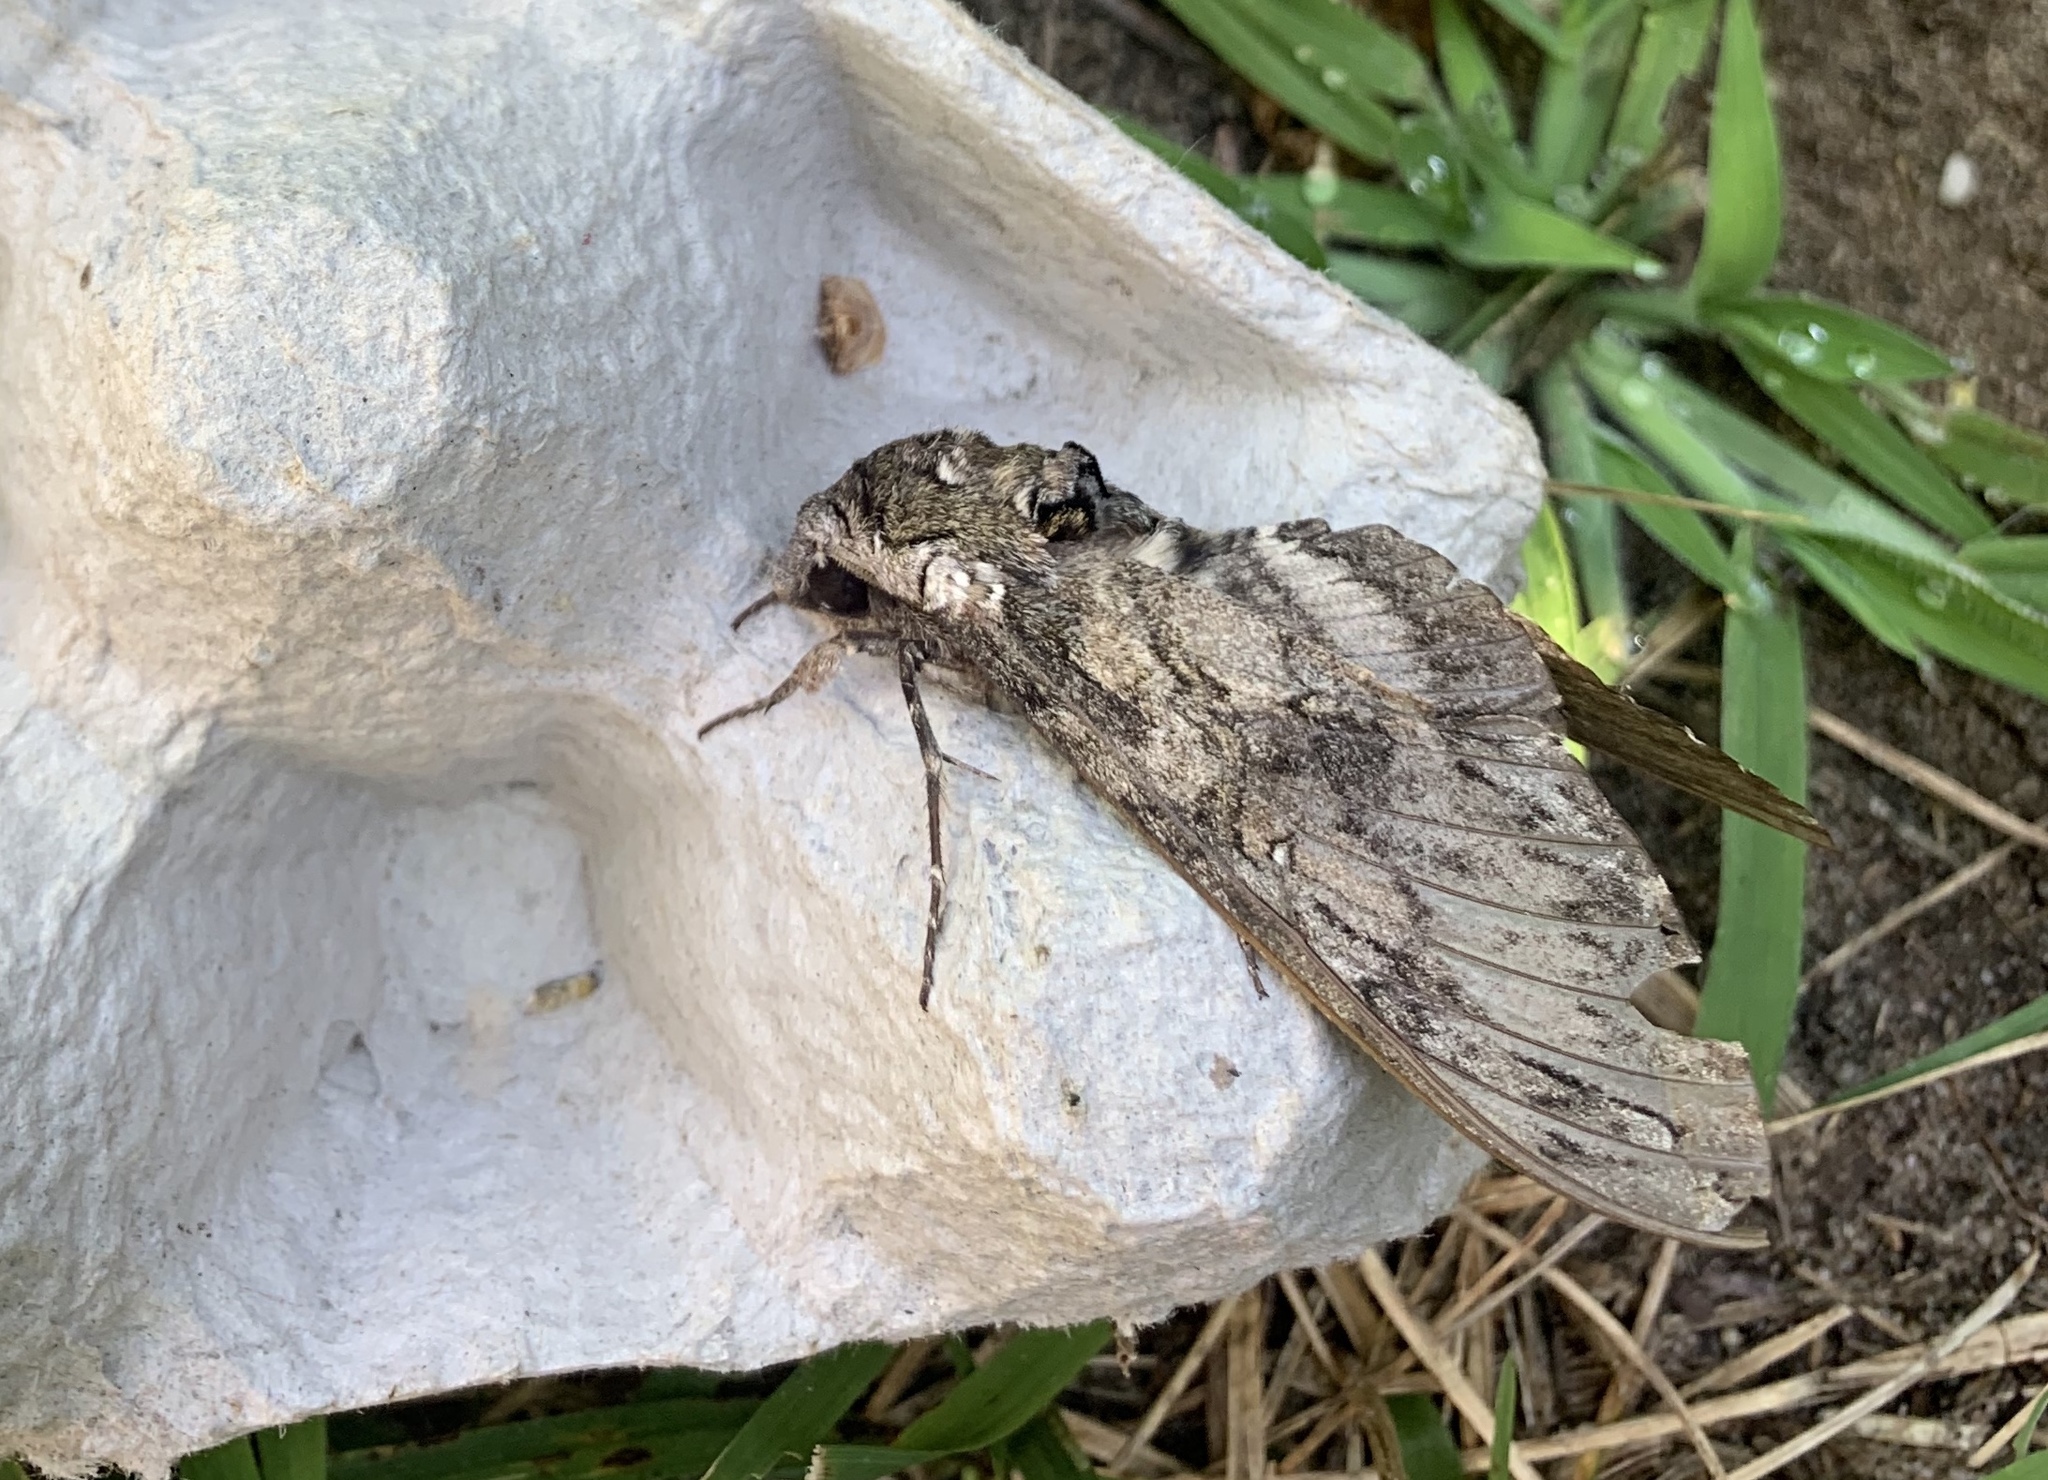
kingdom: Animalia
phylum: Arthropoda
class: Insecta
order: Lepidoptera
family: Sphingidae
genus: Manduca
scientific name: Manduca sexta
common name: Carolina sphinx
